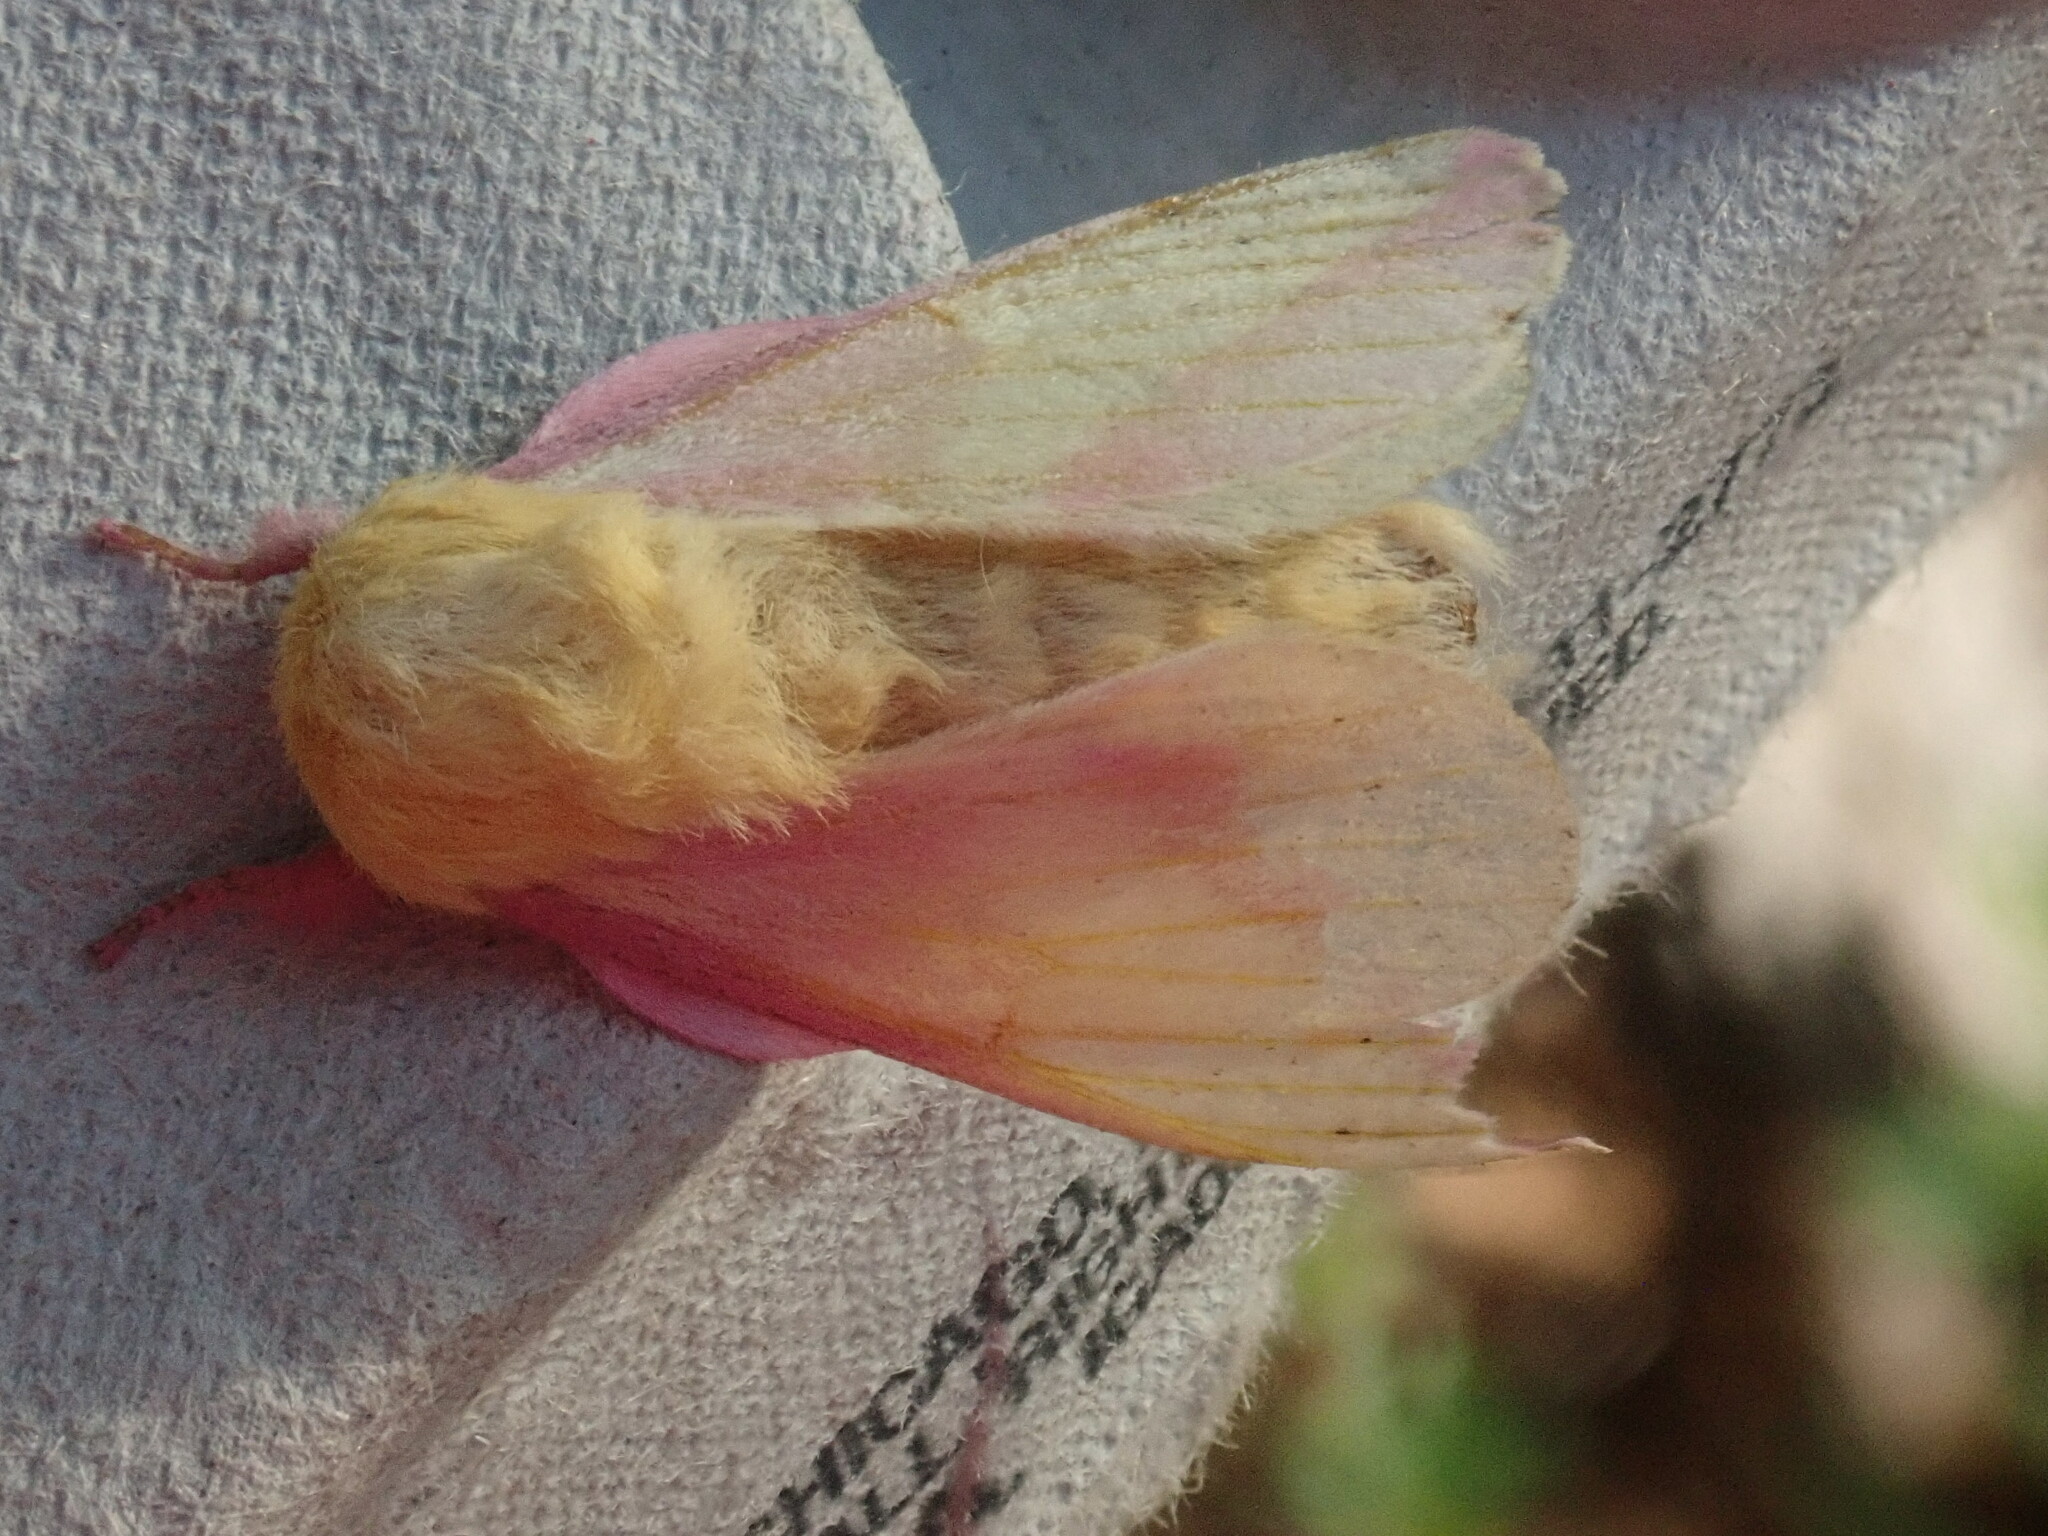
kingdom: Animalia
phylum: Arthropoda
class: Insecta
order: Lepidoptera
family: Saturniidae
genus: Dryocampa
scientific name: Dryocampa rubicunda
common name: Rosy maple moth
